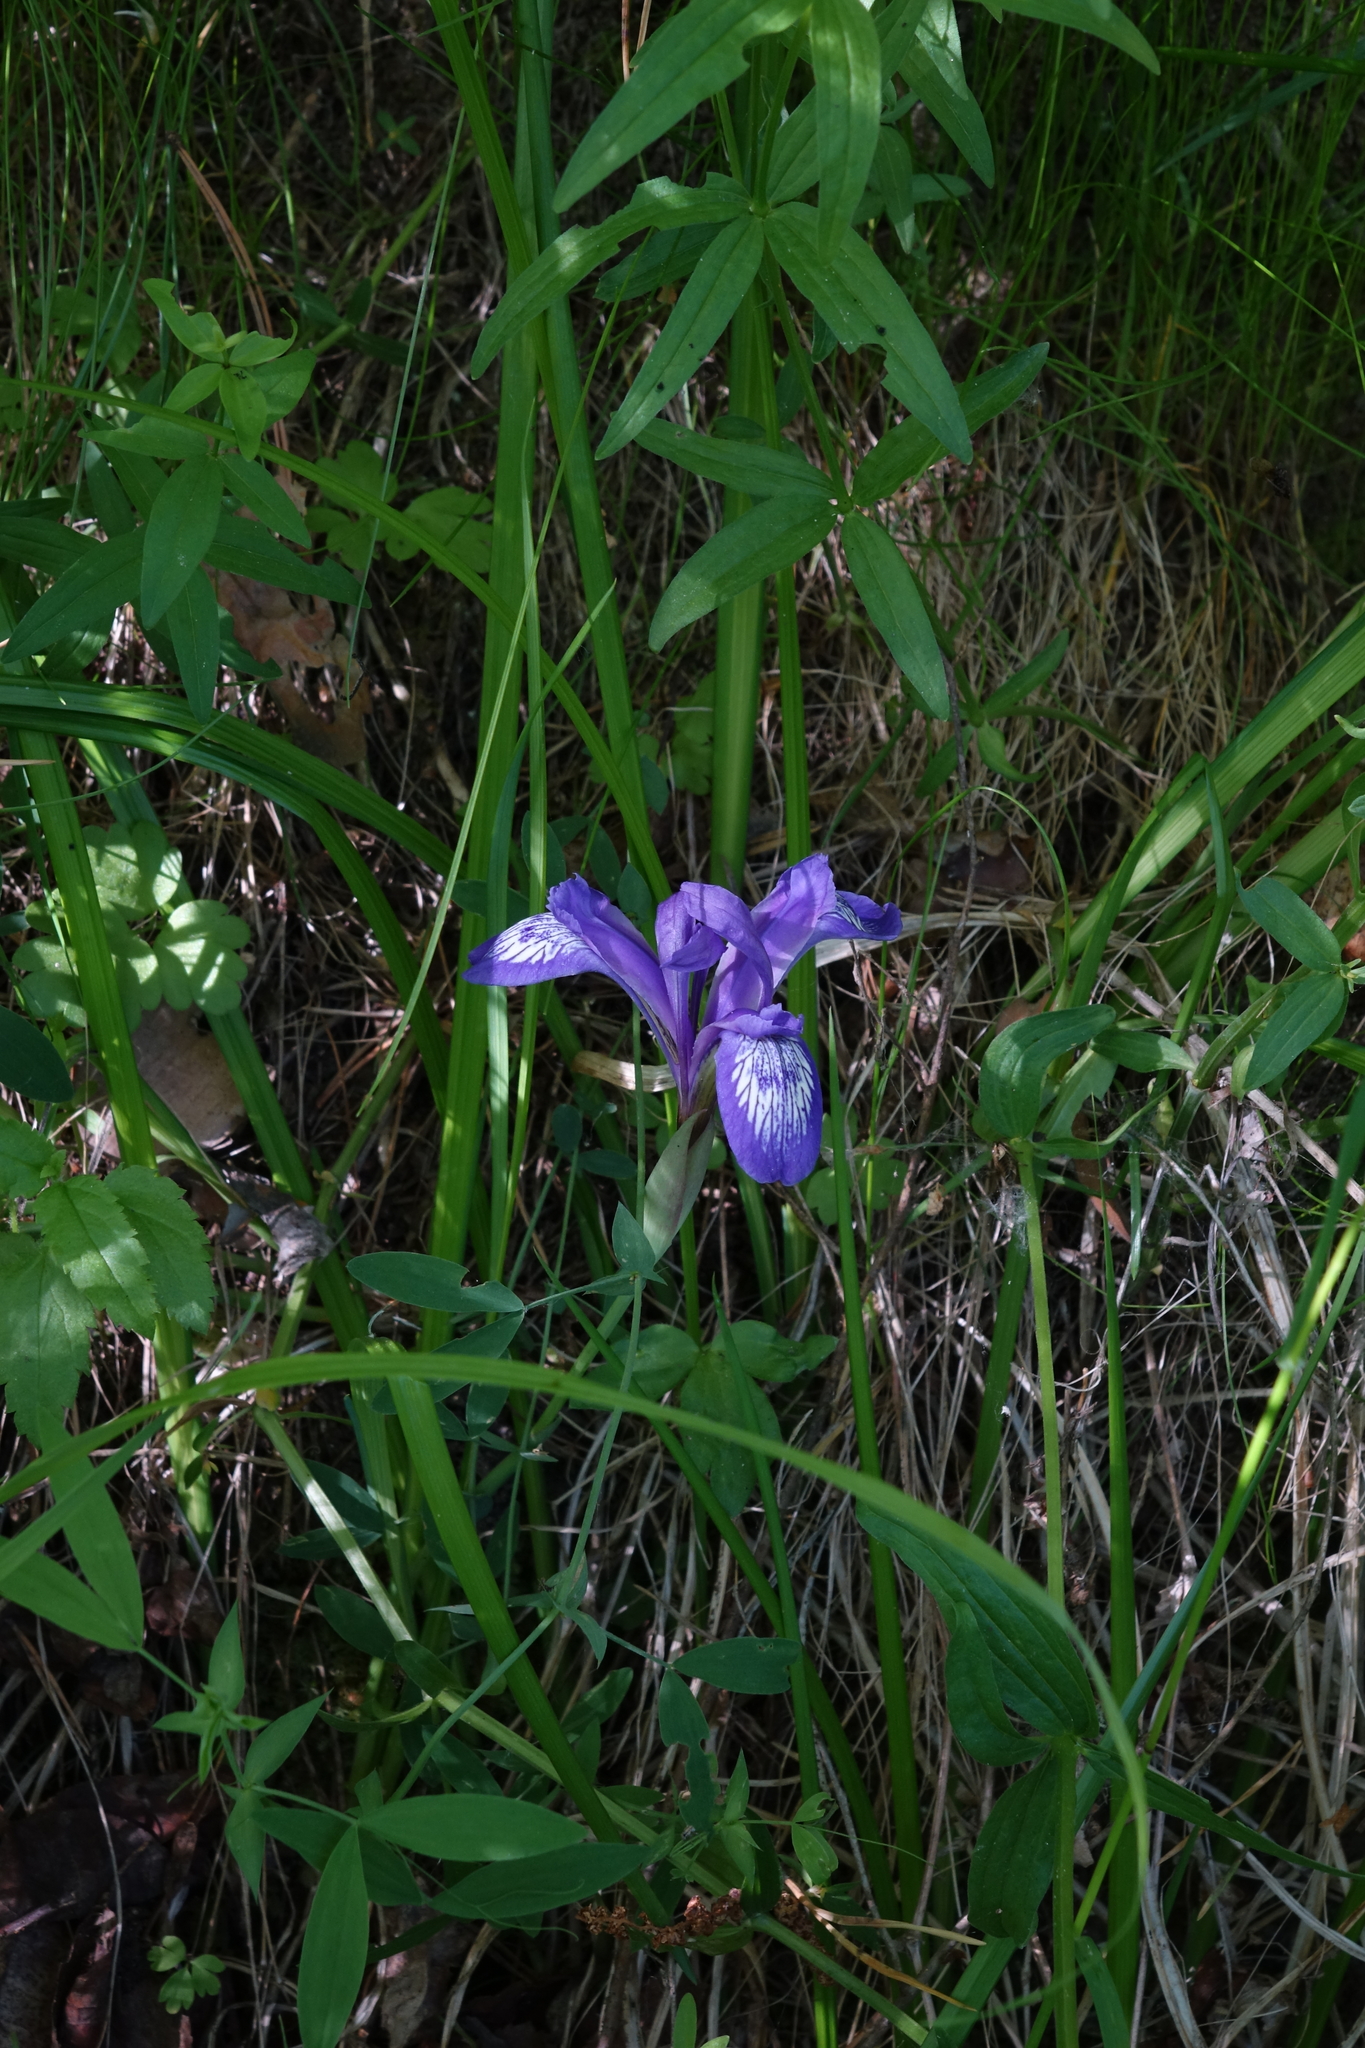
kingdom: Plantae
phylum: Tracheophyta
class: Liliopsida
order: Asparagales
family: Iridaceae
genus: Iris
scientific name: Iris ruthenica
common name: Purple-bract iris
